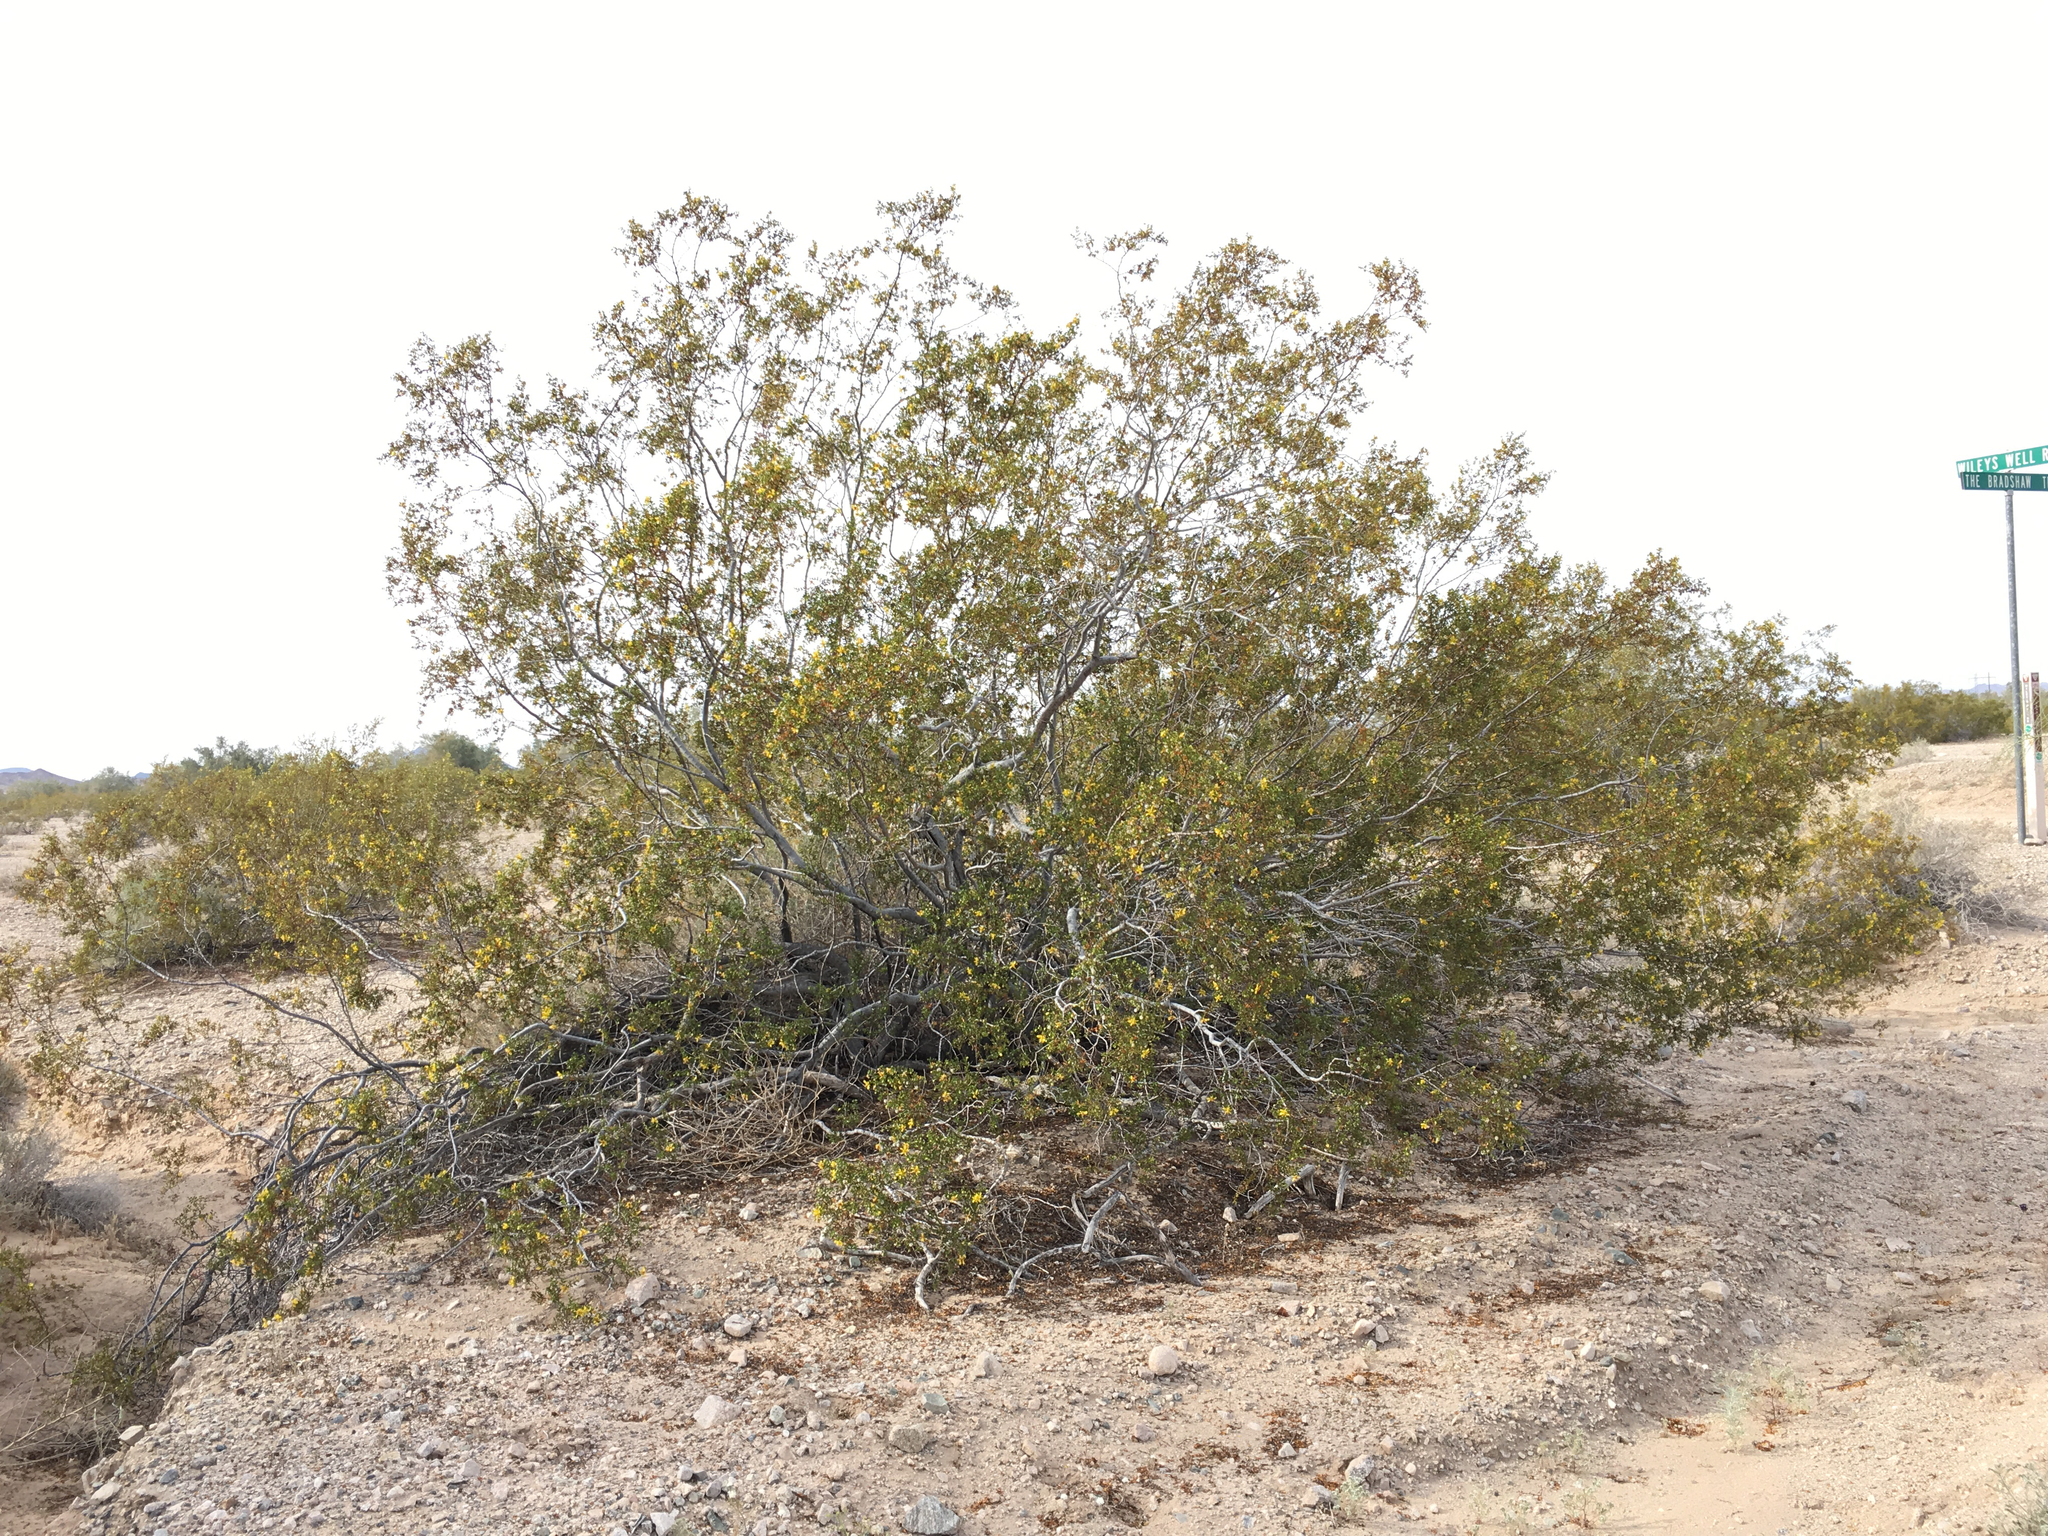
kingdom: Plantae
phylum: Tracheophyta
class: Magnoliopsida
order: Zygophyllales
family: Zygophyllaceae
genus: Larrea
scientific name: Larrea tridentata
